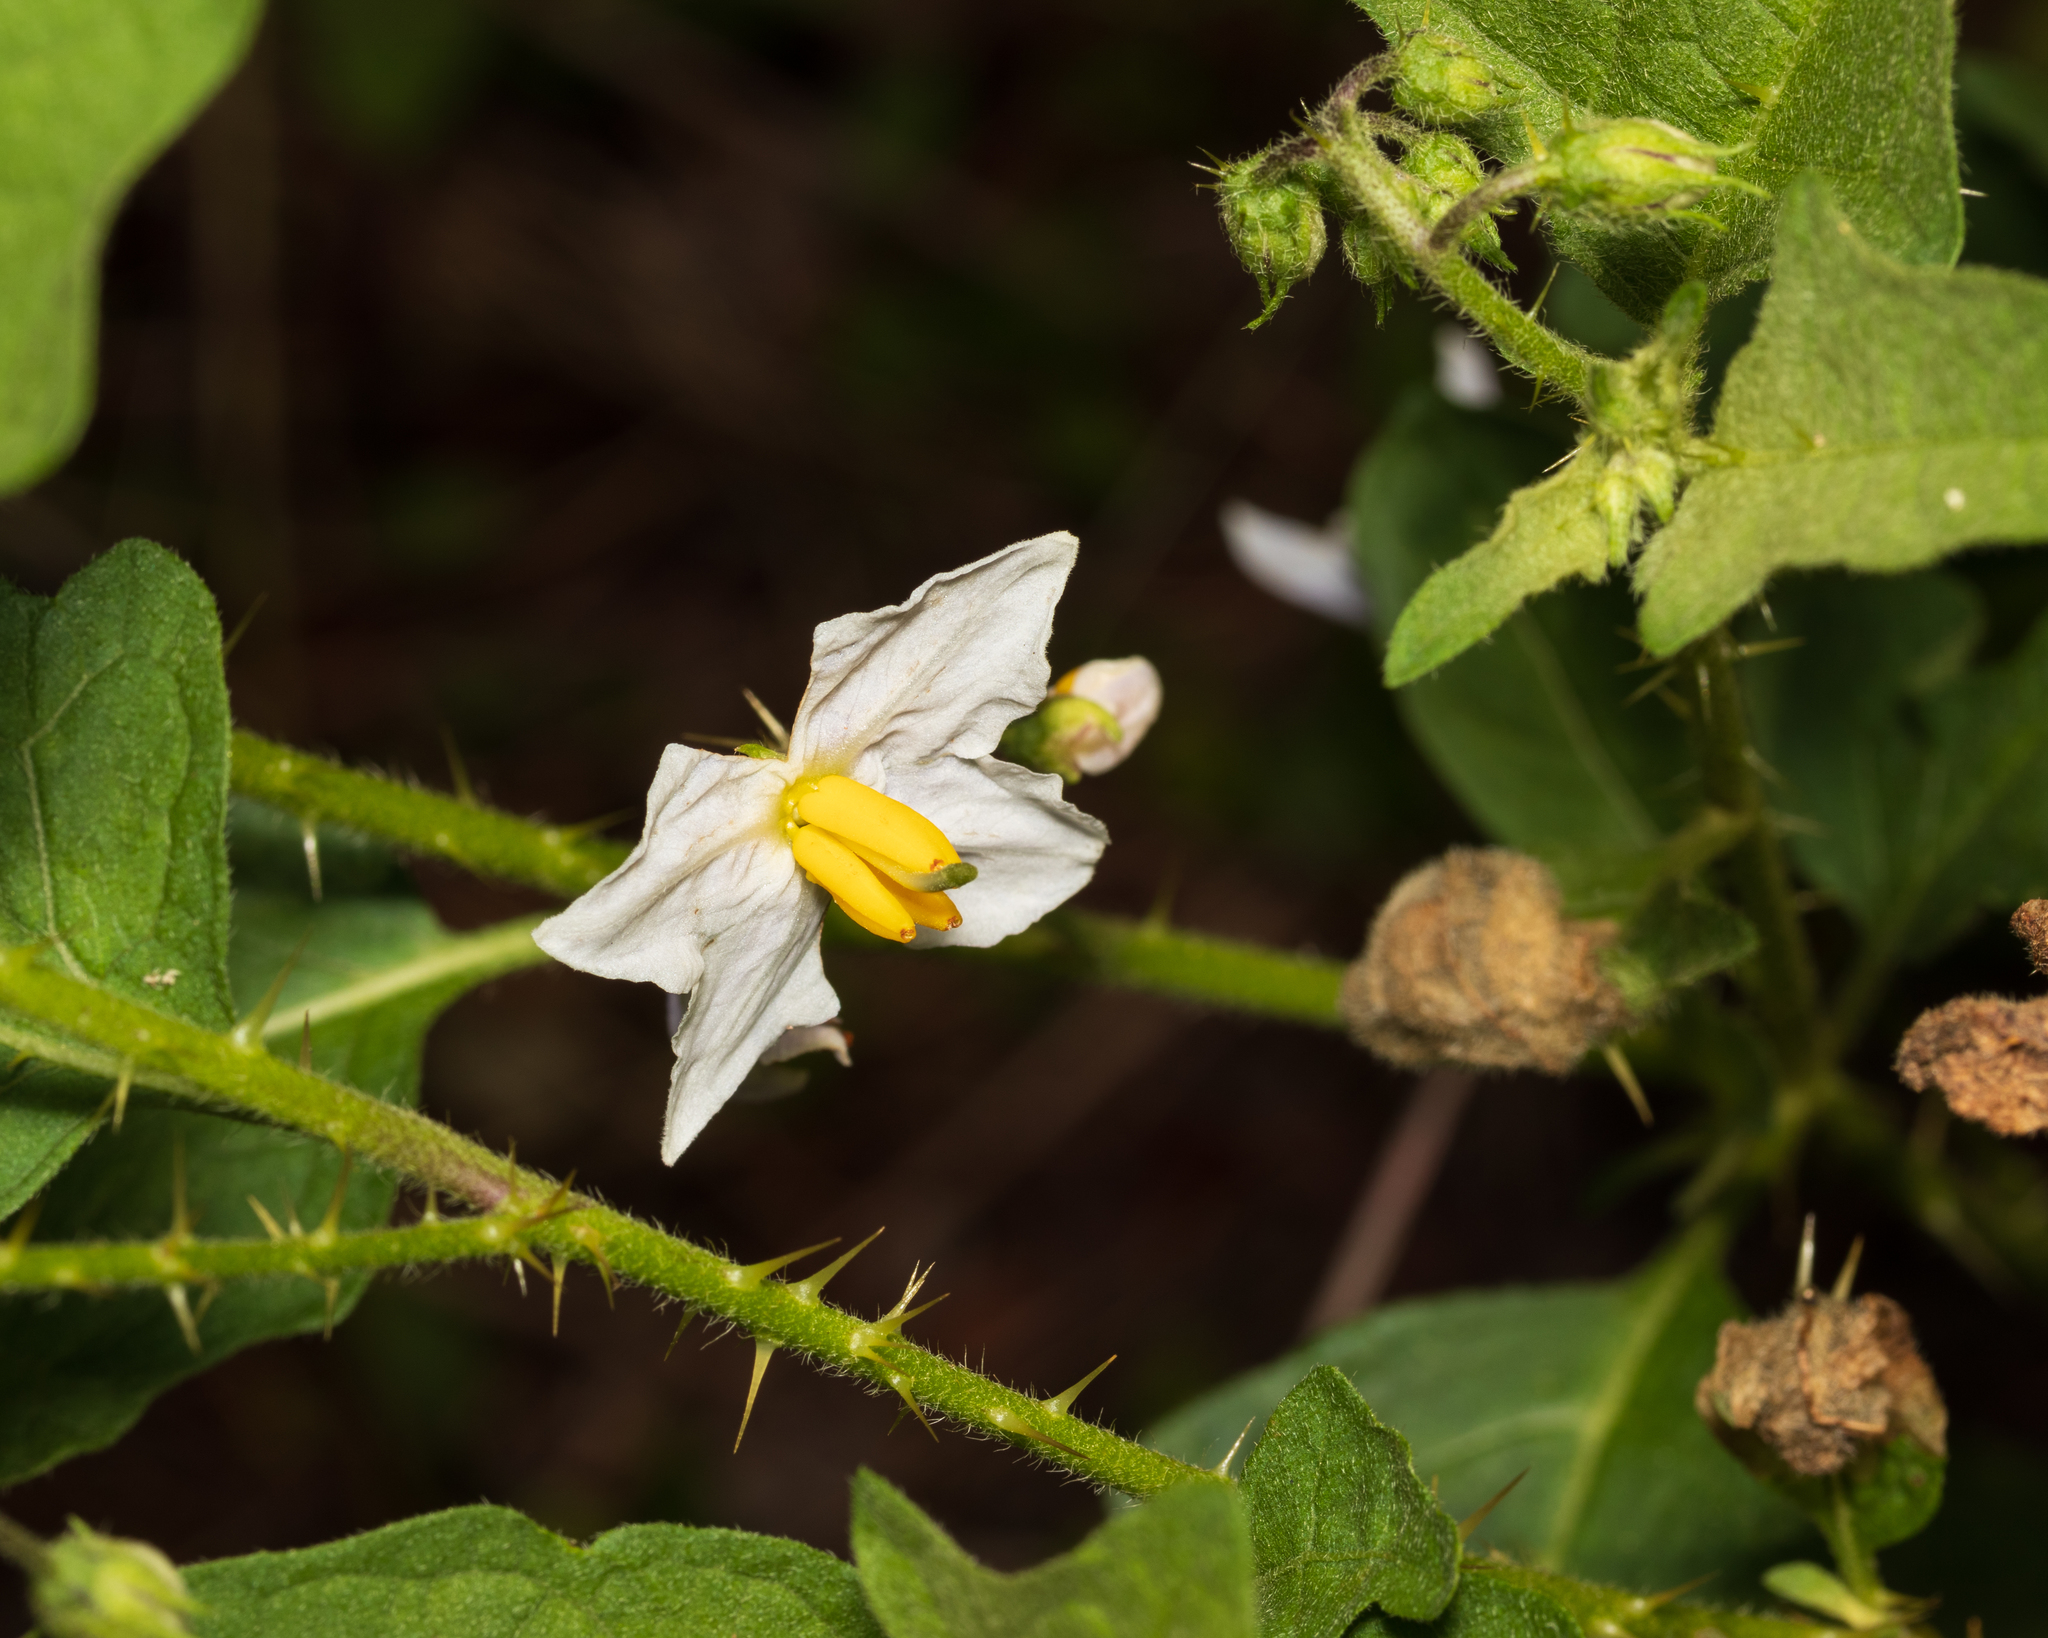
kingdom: Plantae
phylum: Tracheophyta
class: Magnoliopsida
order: Solanales
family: Solanaceae
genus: Solanum
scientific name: Solanum carolinense
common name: Horse-nettle
